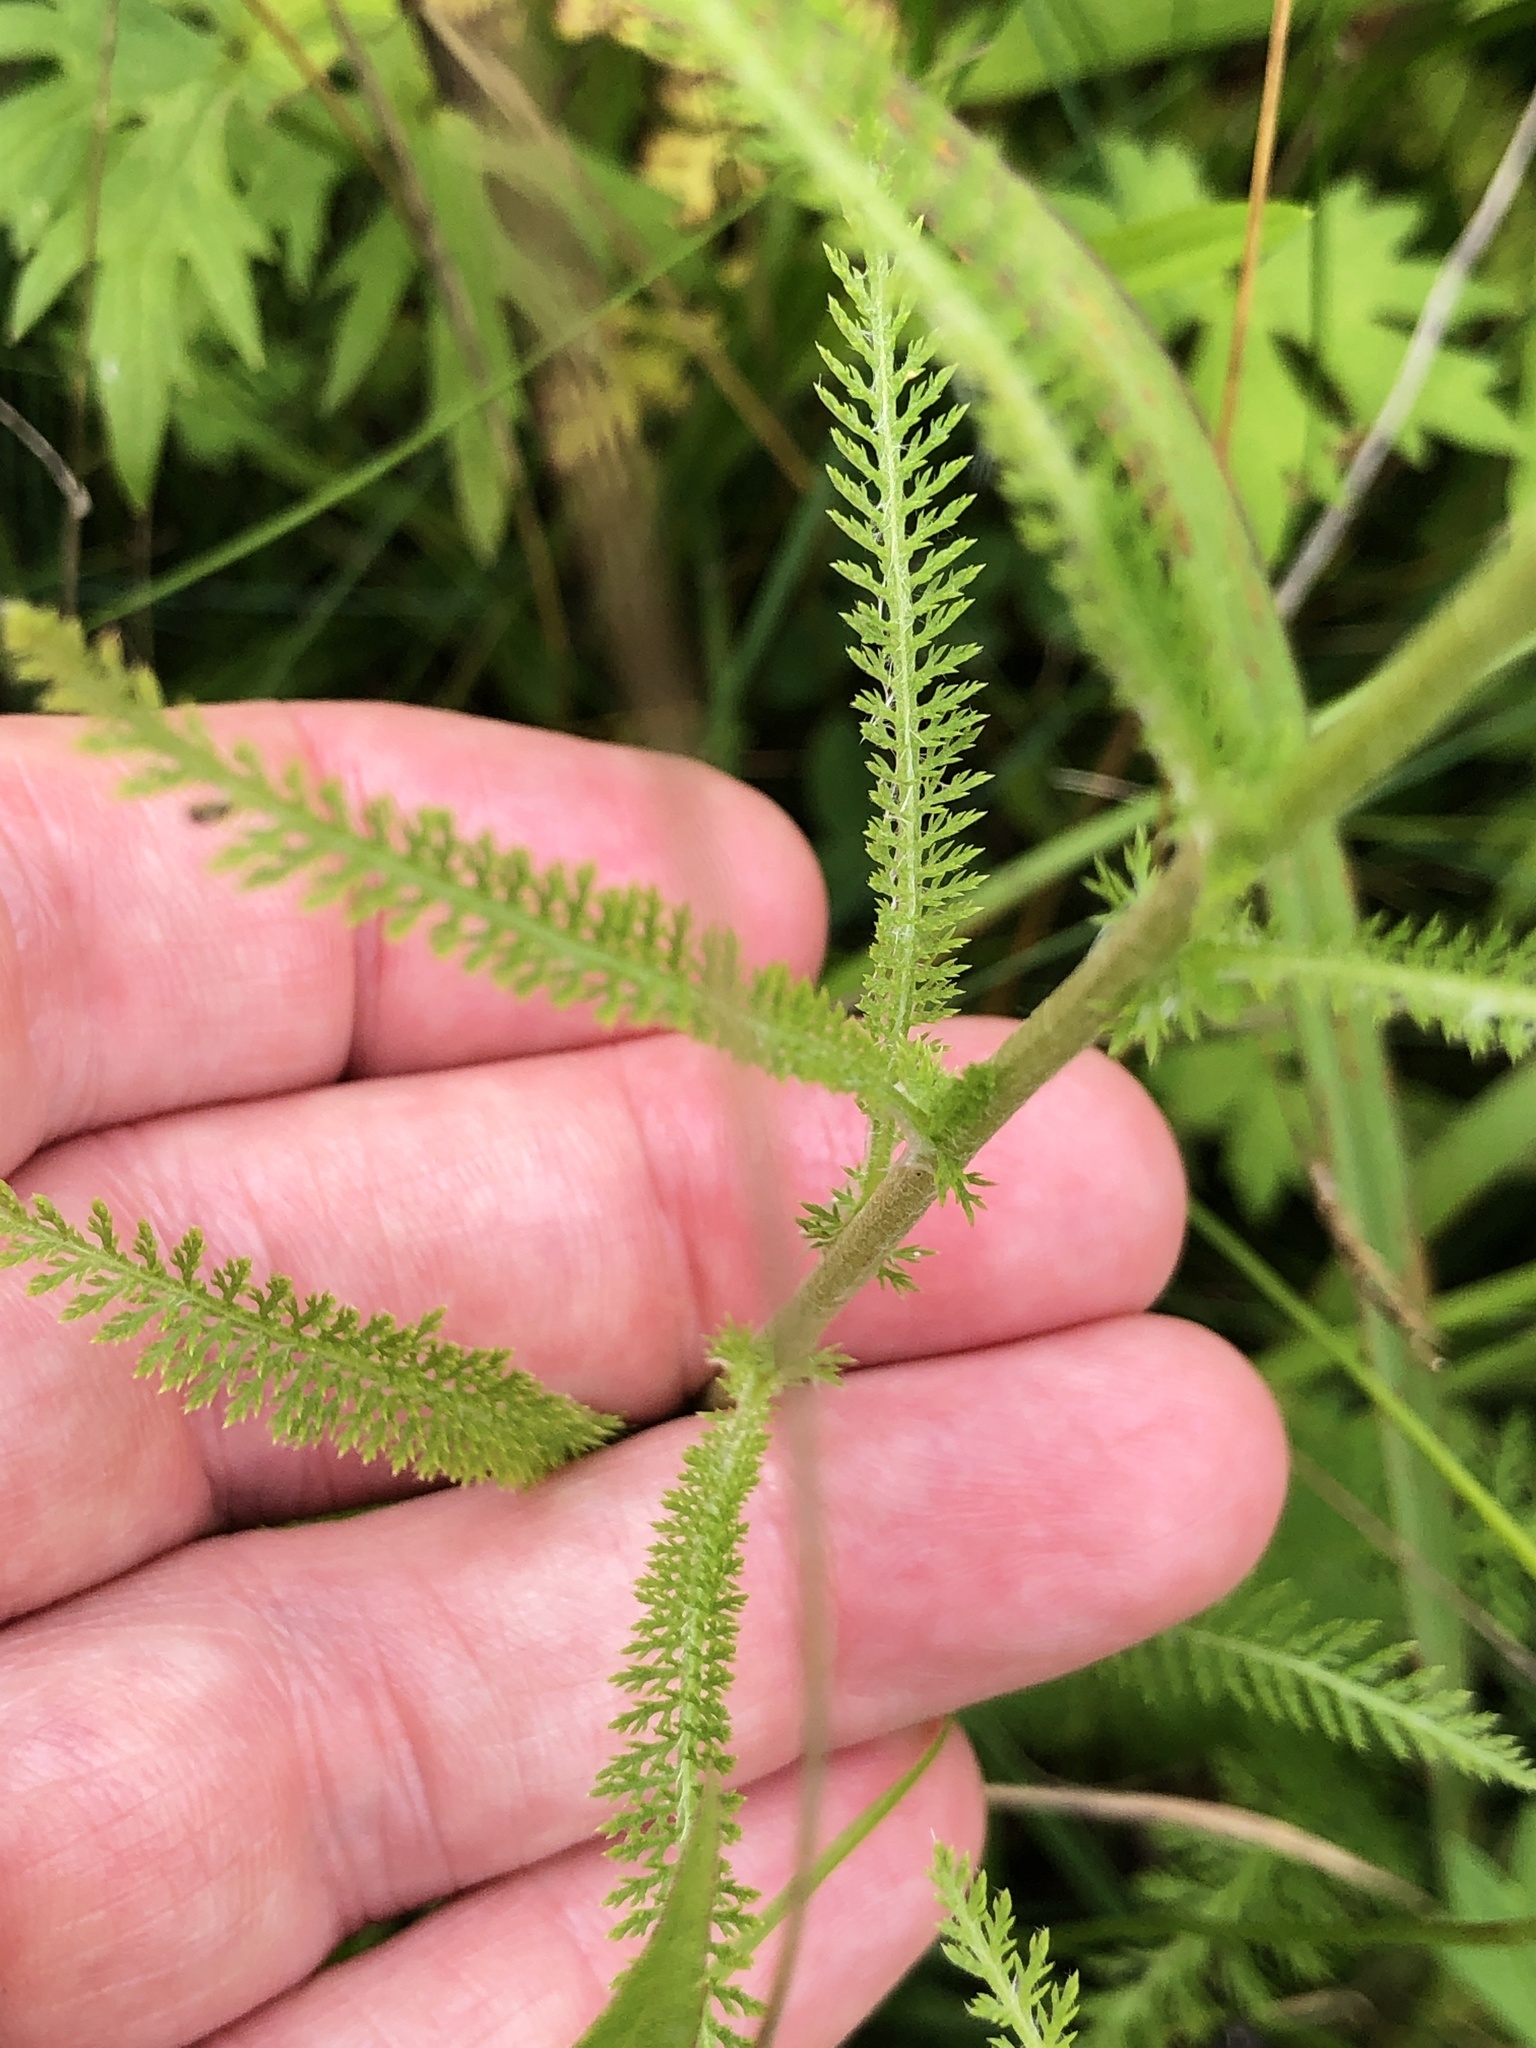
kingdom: Plantae
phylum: Tracheophyta
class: Magnoliopsida
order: Asterales
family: Asteraceae
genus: Achillea
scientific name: Achillea millefolium
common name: Yarrow
